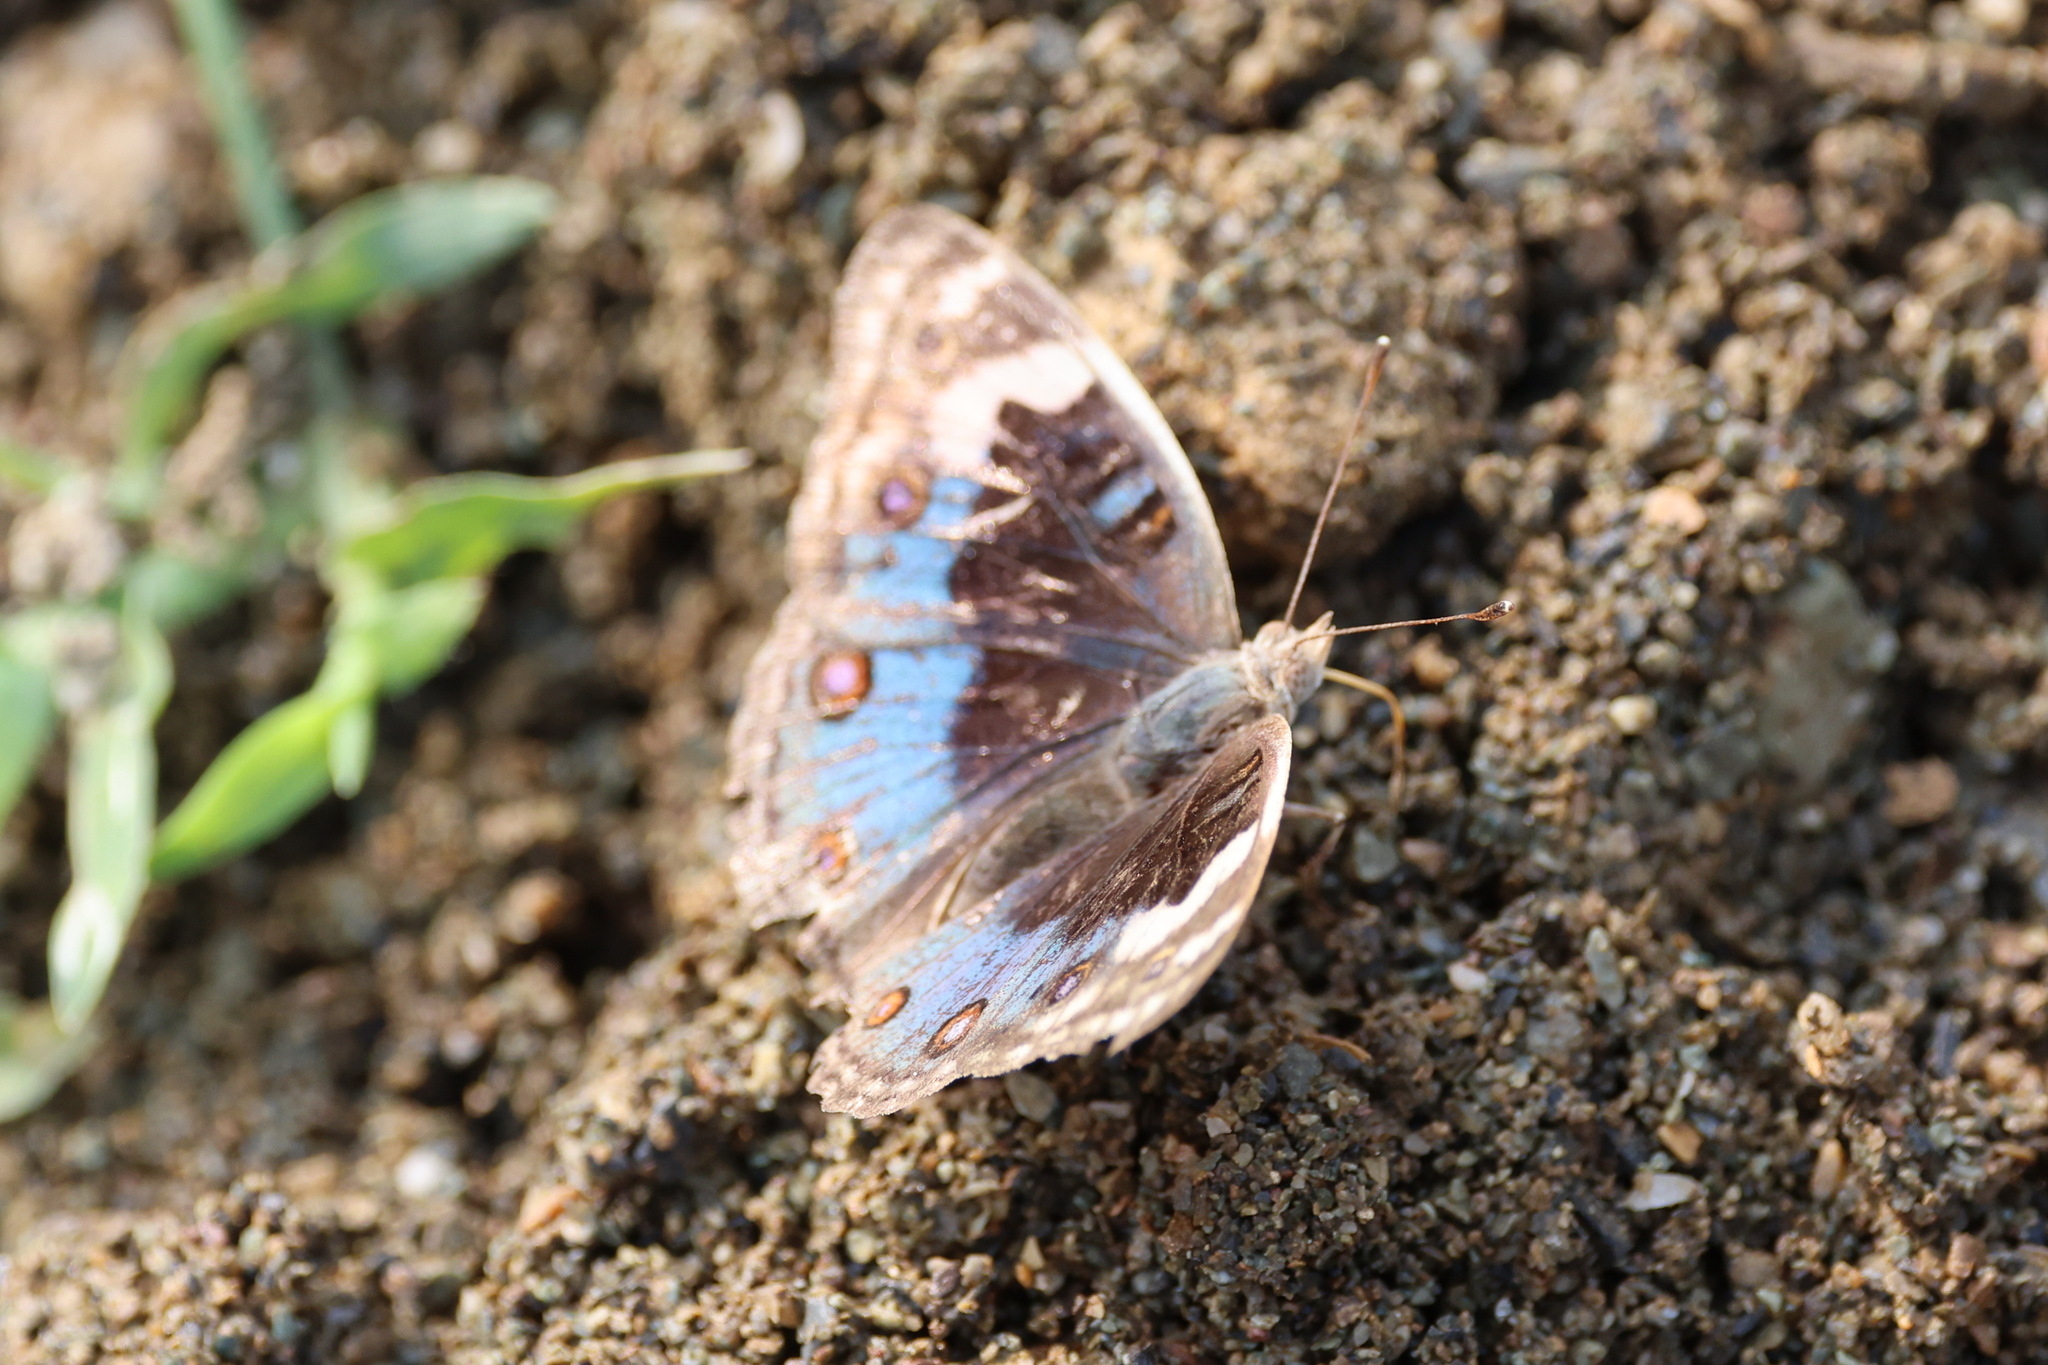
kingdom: Animalia
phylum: Arthropoda
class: Insecta
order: Lepidoptera
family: Nymphalidae
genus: Junonia
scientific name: Junonia orithya
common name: Blue pansy
